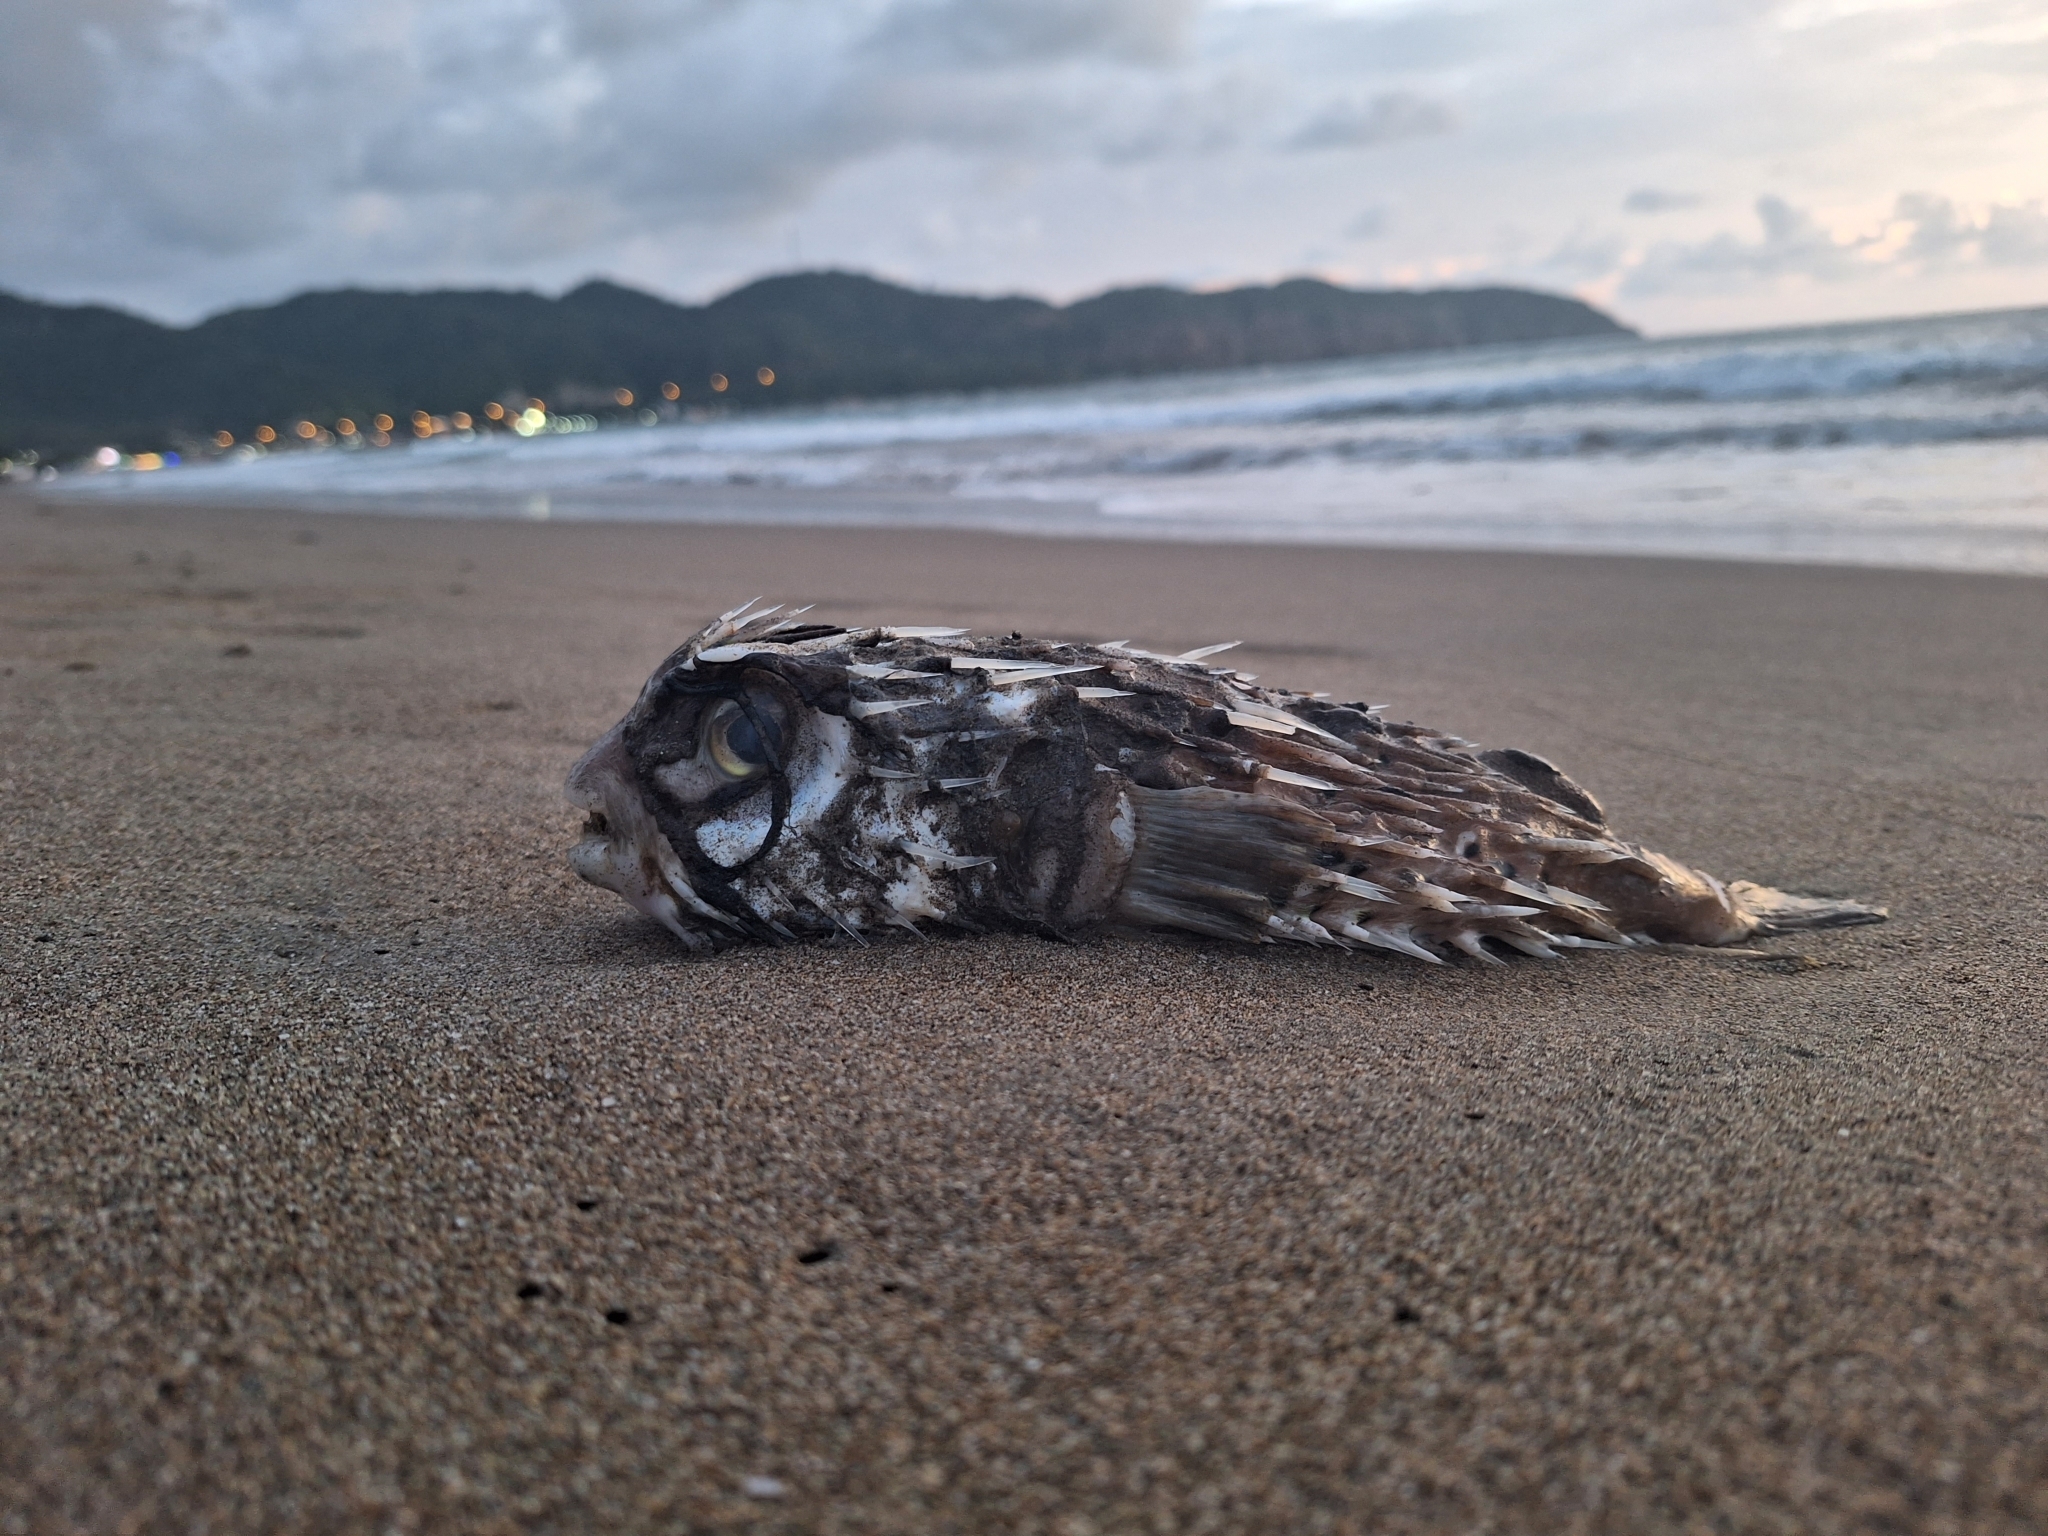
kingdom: Animalia
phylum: Chordata
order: Tetraodontiformes
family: Diodontidae
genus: Diodon
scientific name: Diodon holocanthus
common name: Balloonfish
